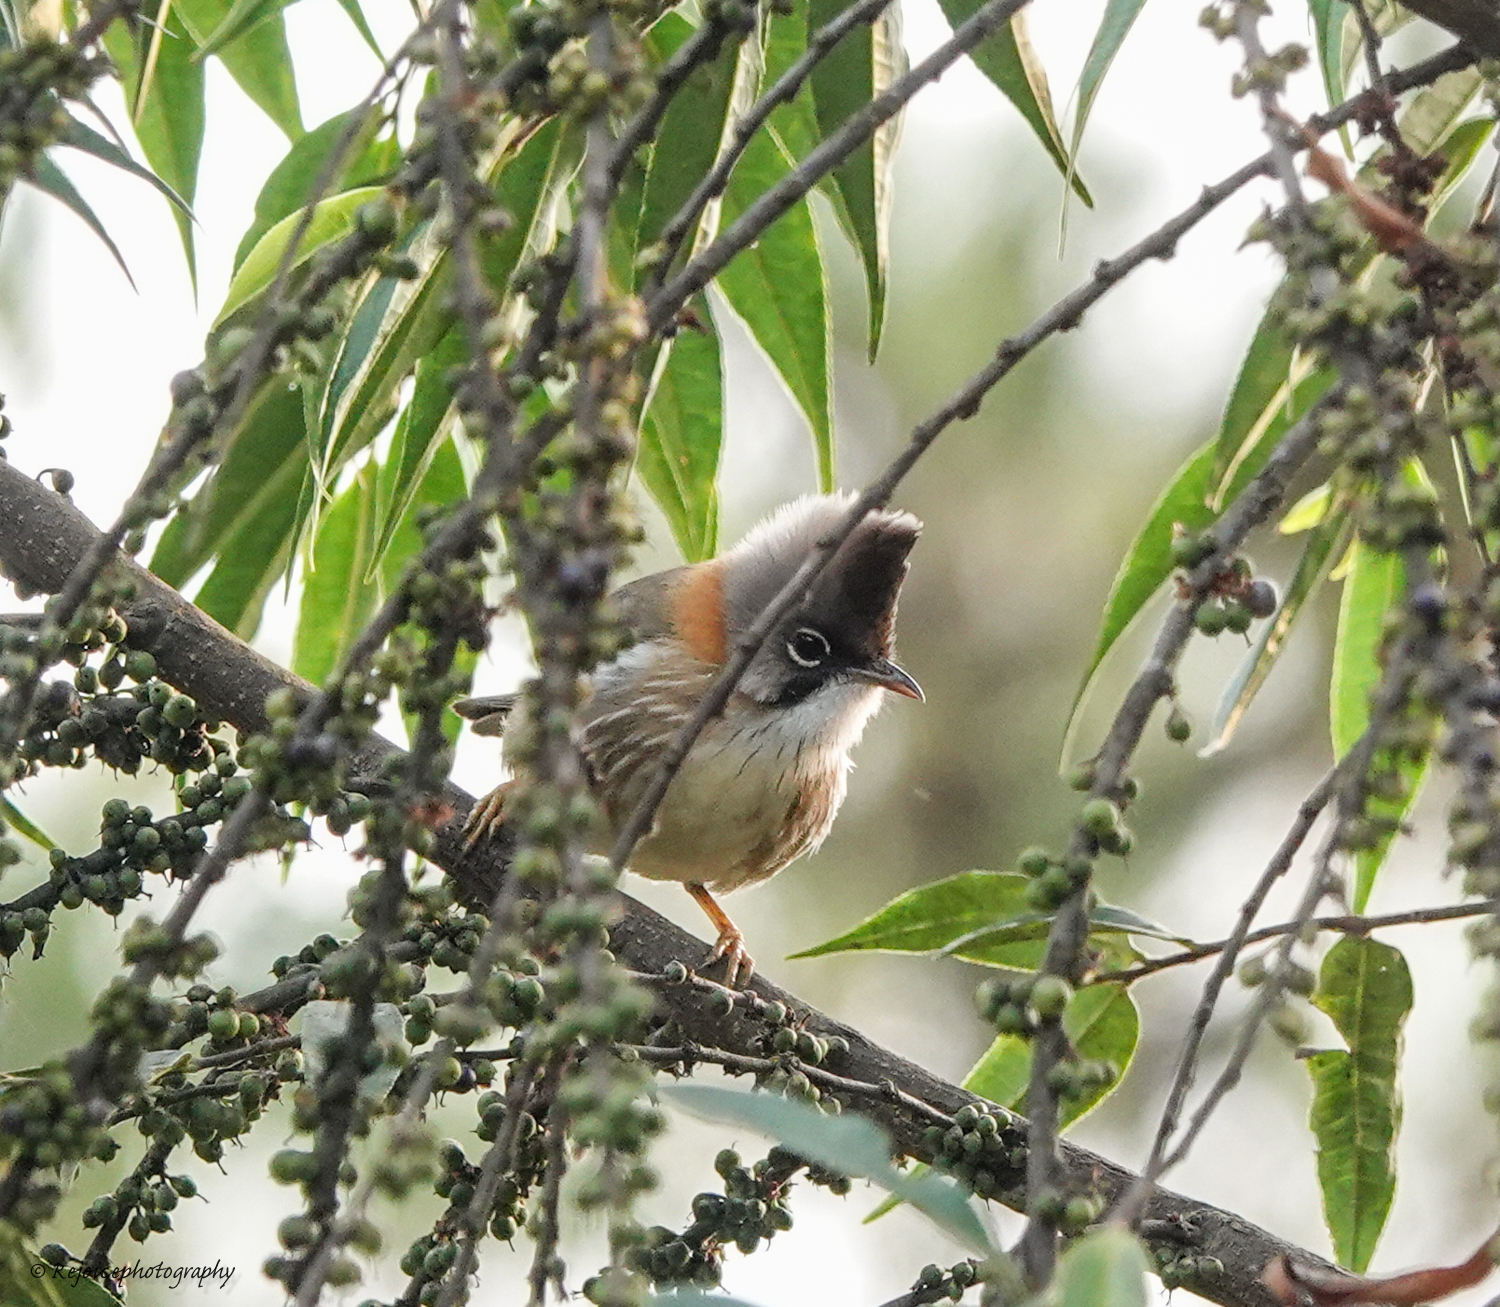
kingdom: Animalia
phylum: Chordata
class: Aves
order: Passeriformes
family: Zosteropidae
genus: Yuhina
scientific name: Yuhina flavicollis
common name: Whiskered yuhina
